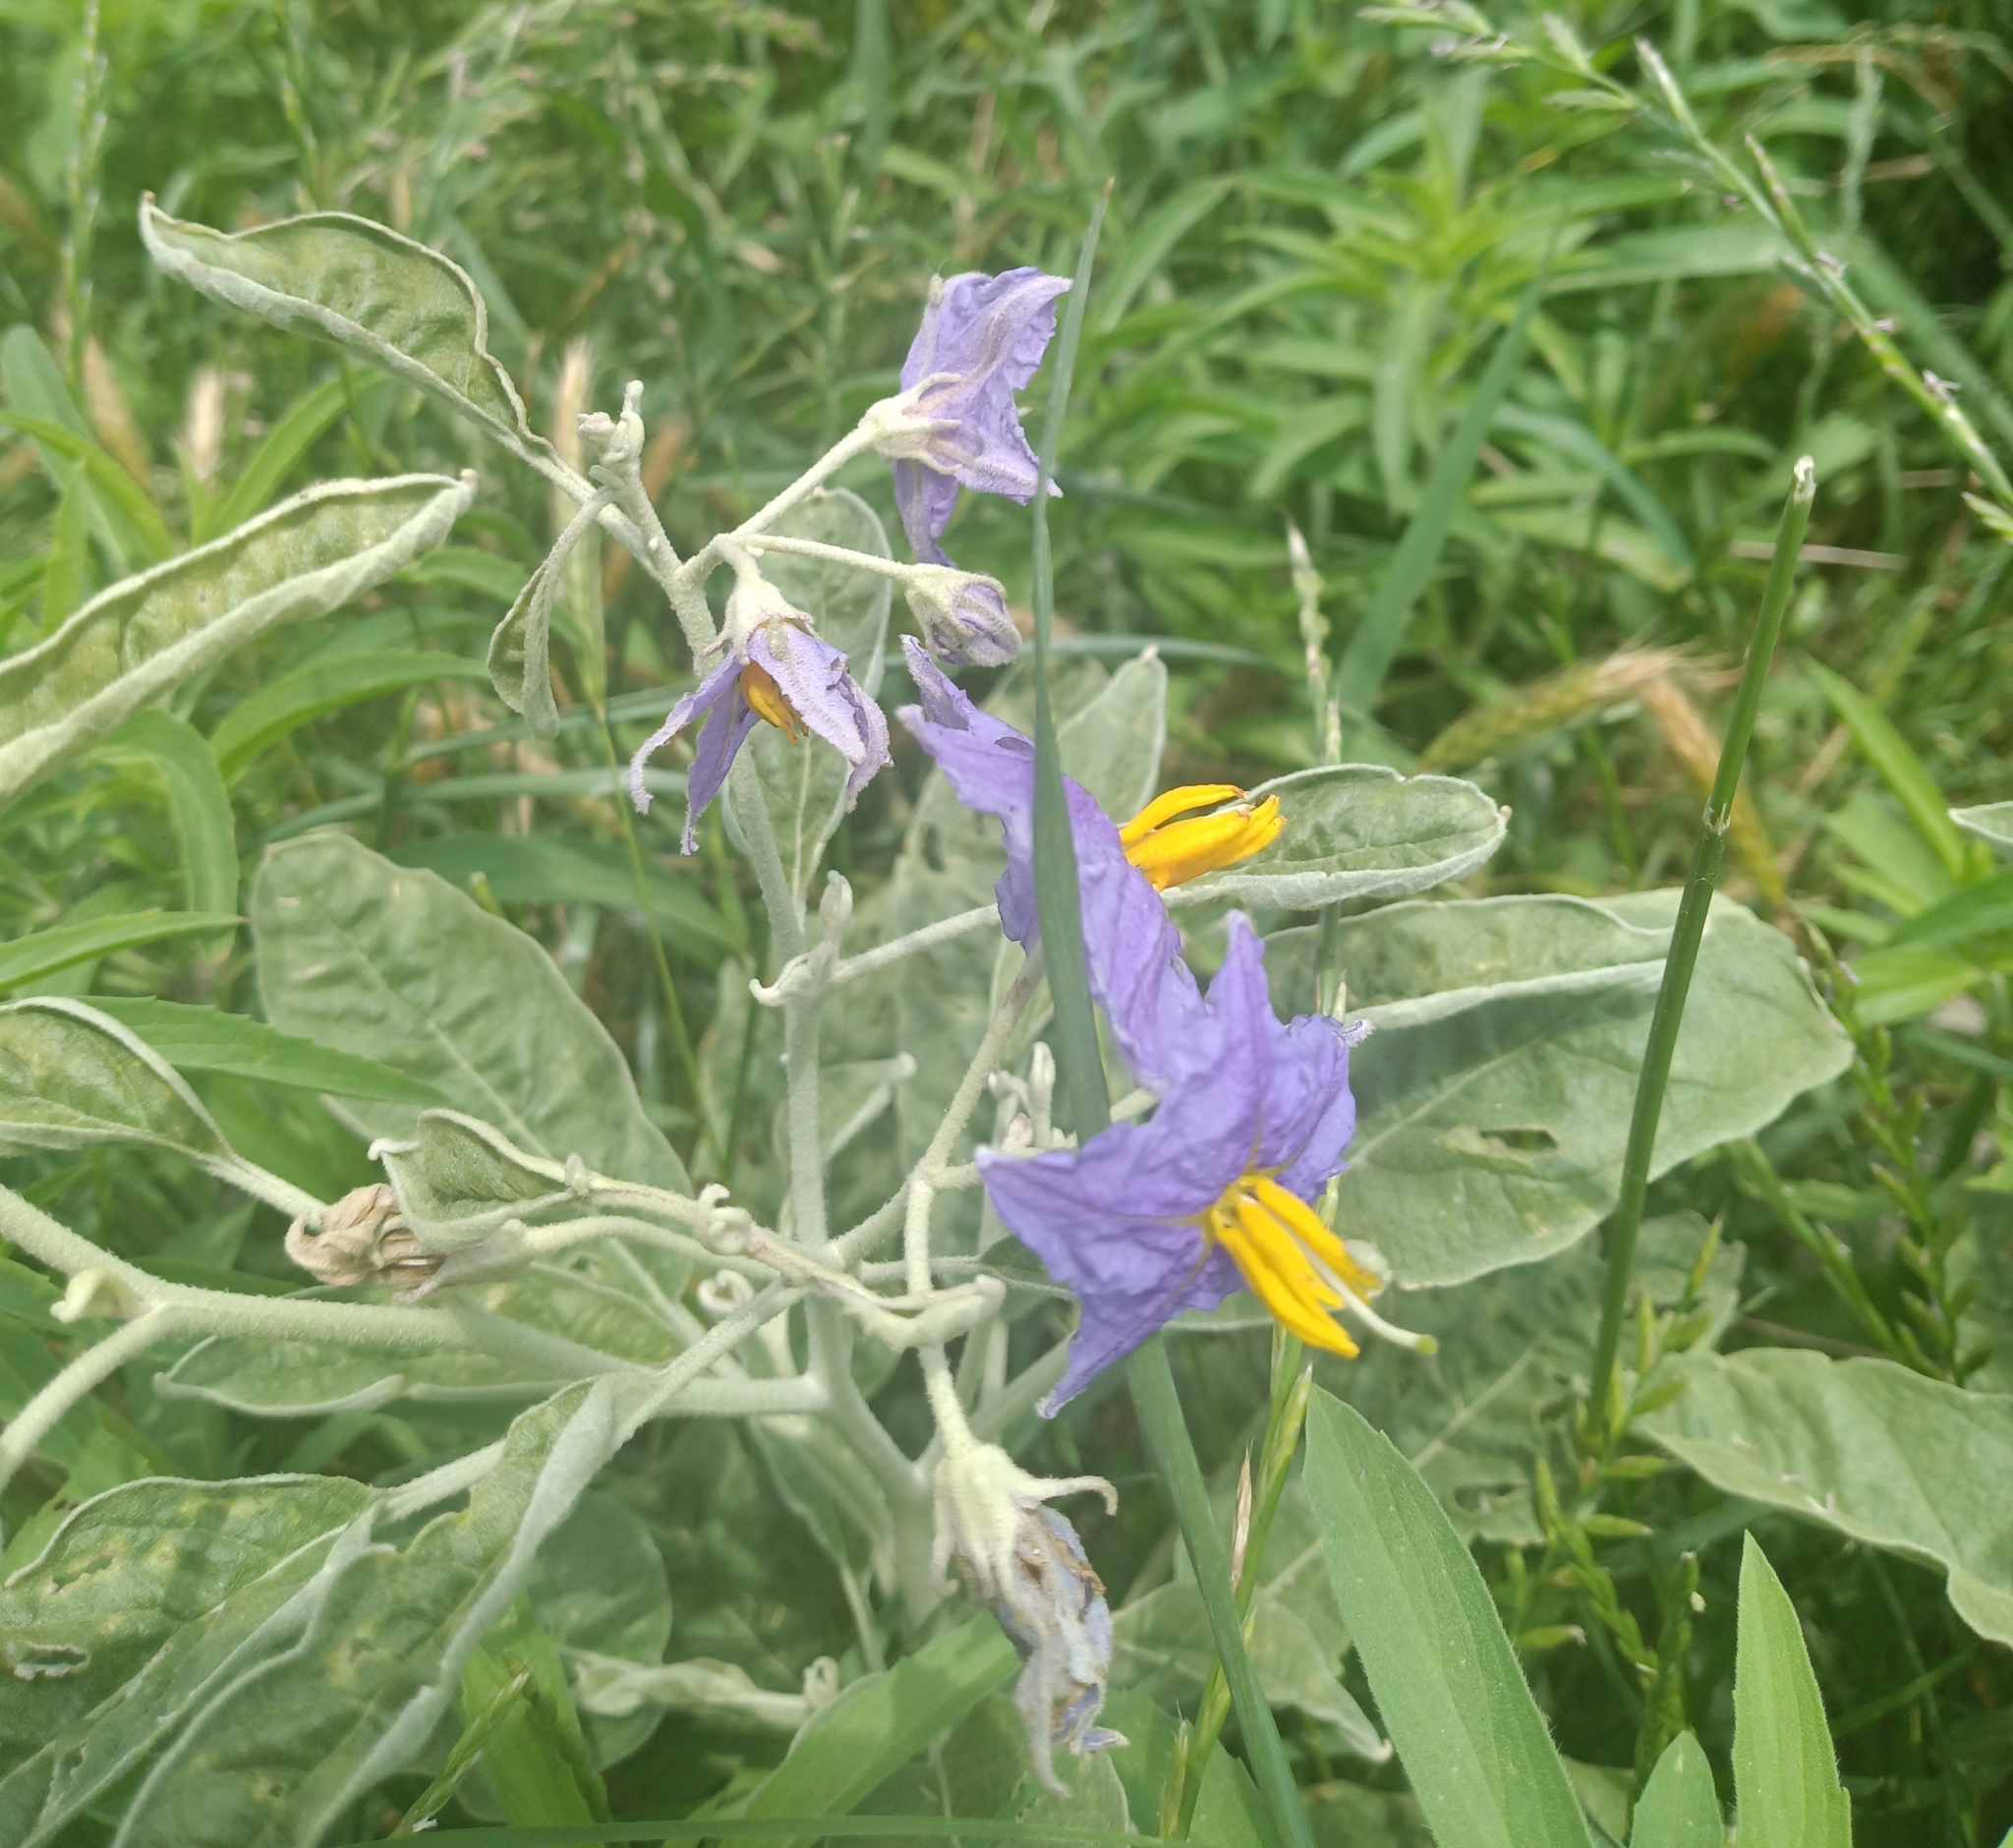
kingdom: Plantae
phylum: Tracheophyta
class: Magnoliopsida
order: Solanales
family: Solanaceae
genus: Solanum
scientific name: Solanum elaeagnifolium
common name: Silverleaf nightshade
